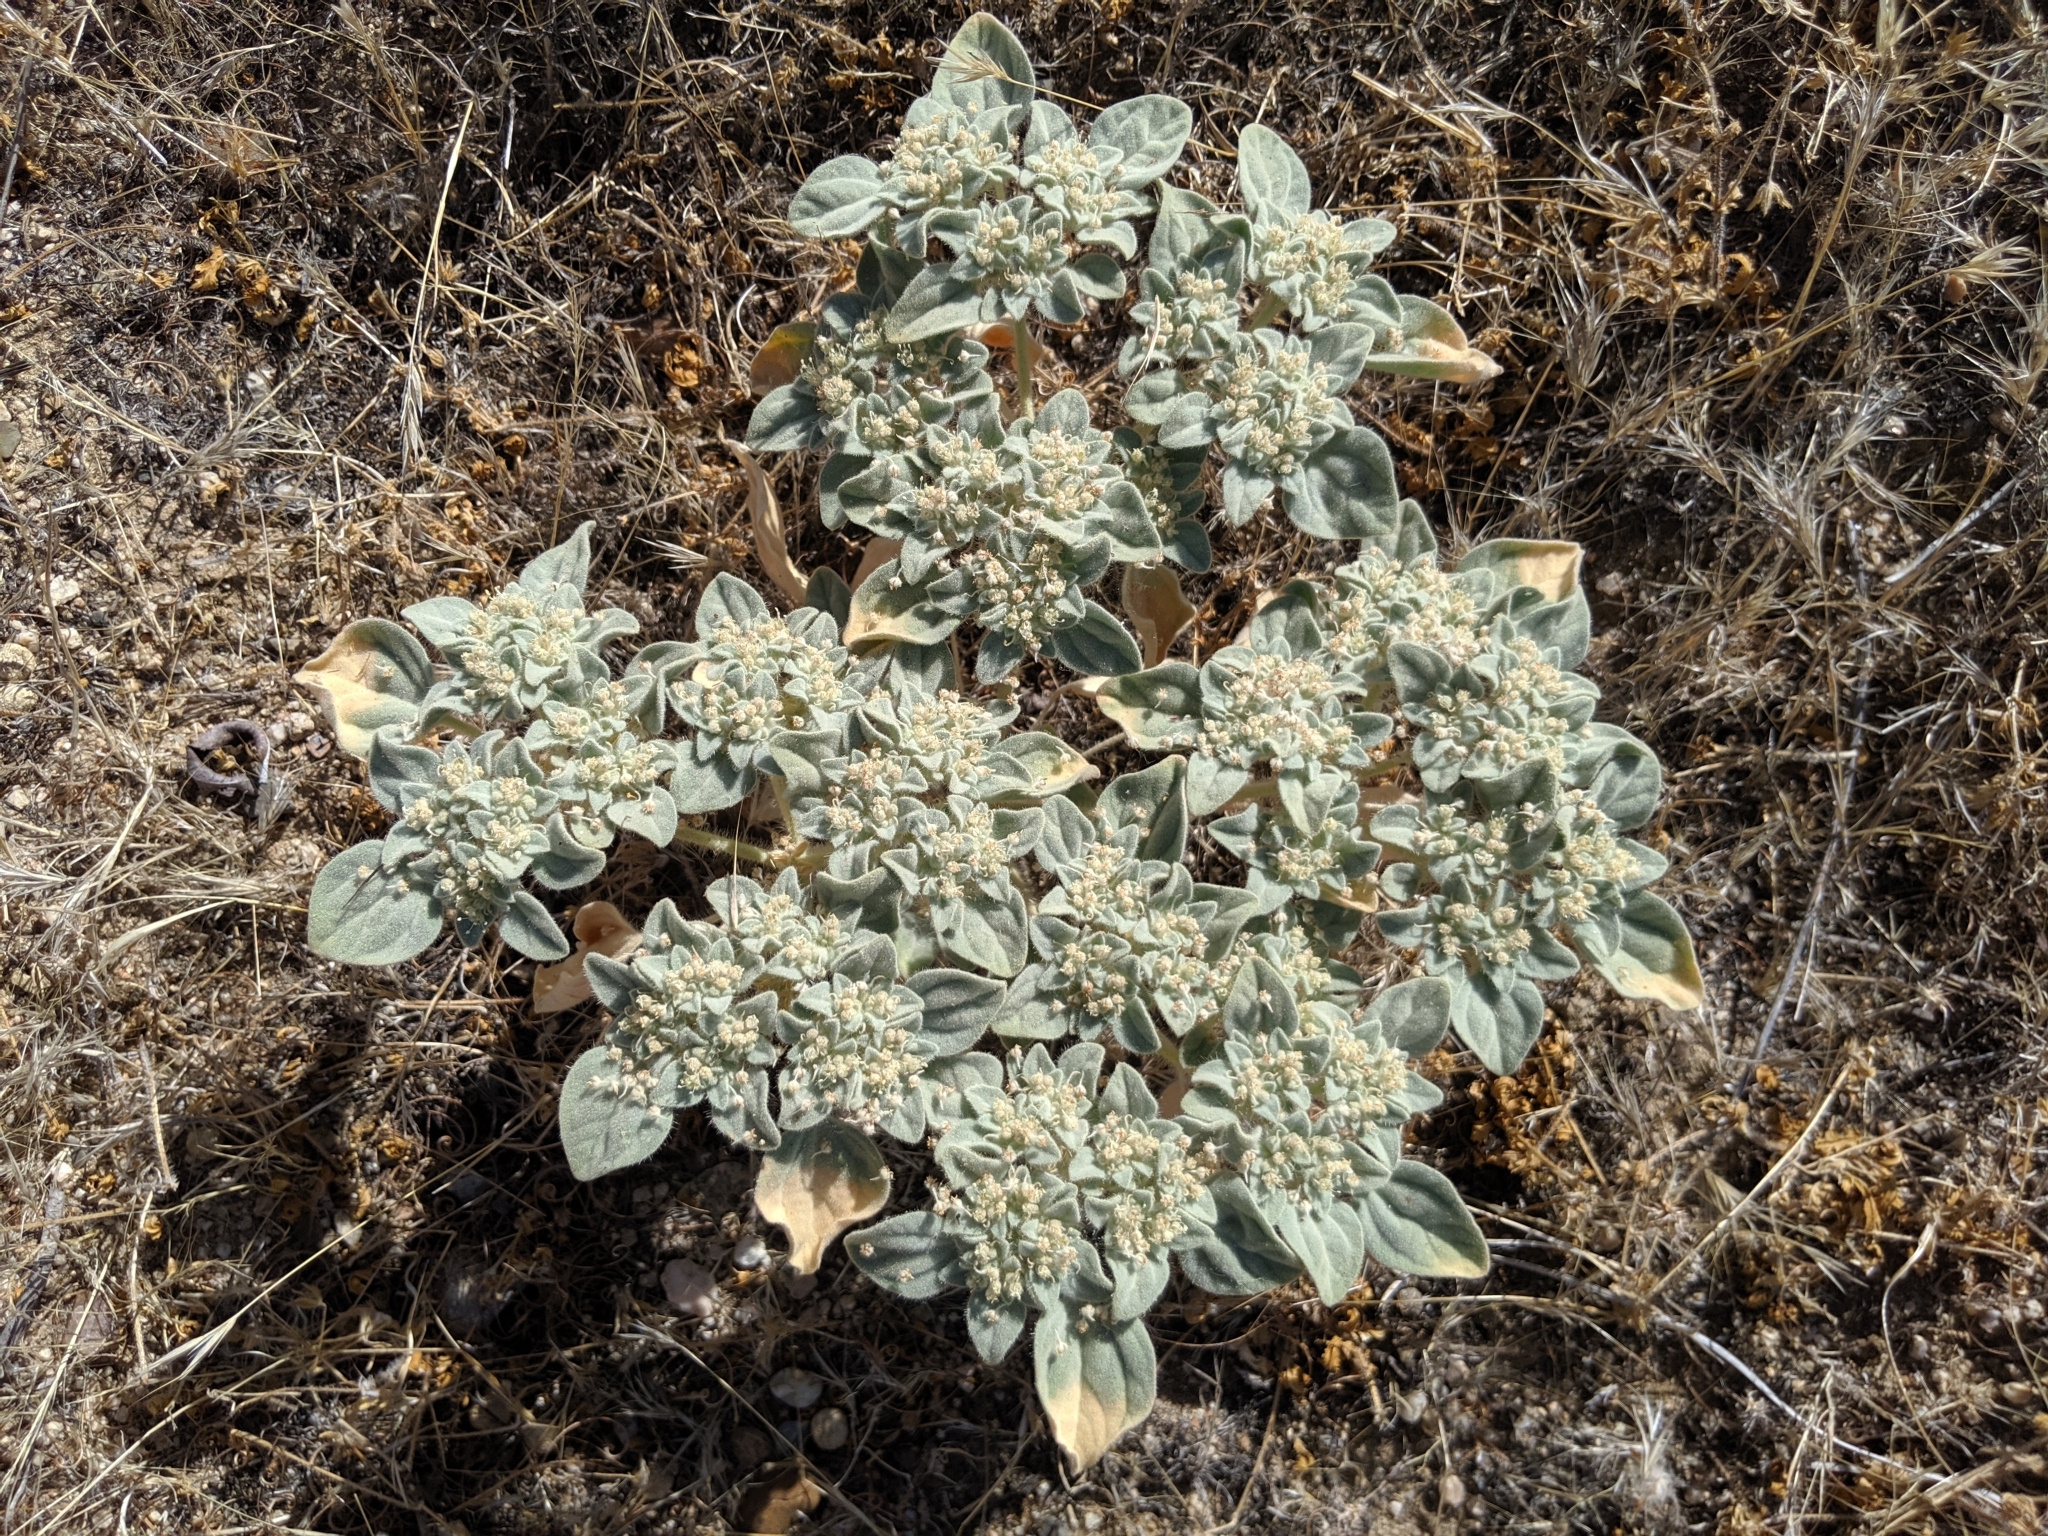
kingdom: Plantae
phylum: Tracheophyta
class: Magnoliopsida
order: Malpighiales
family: Euphorbiaceae
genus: Croton
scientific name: Croton setiger
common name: Dove weed
